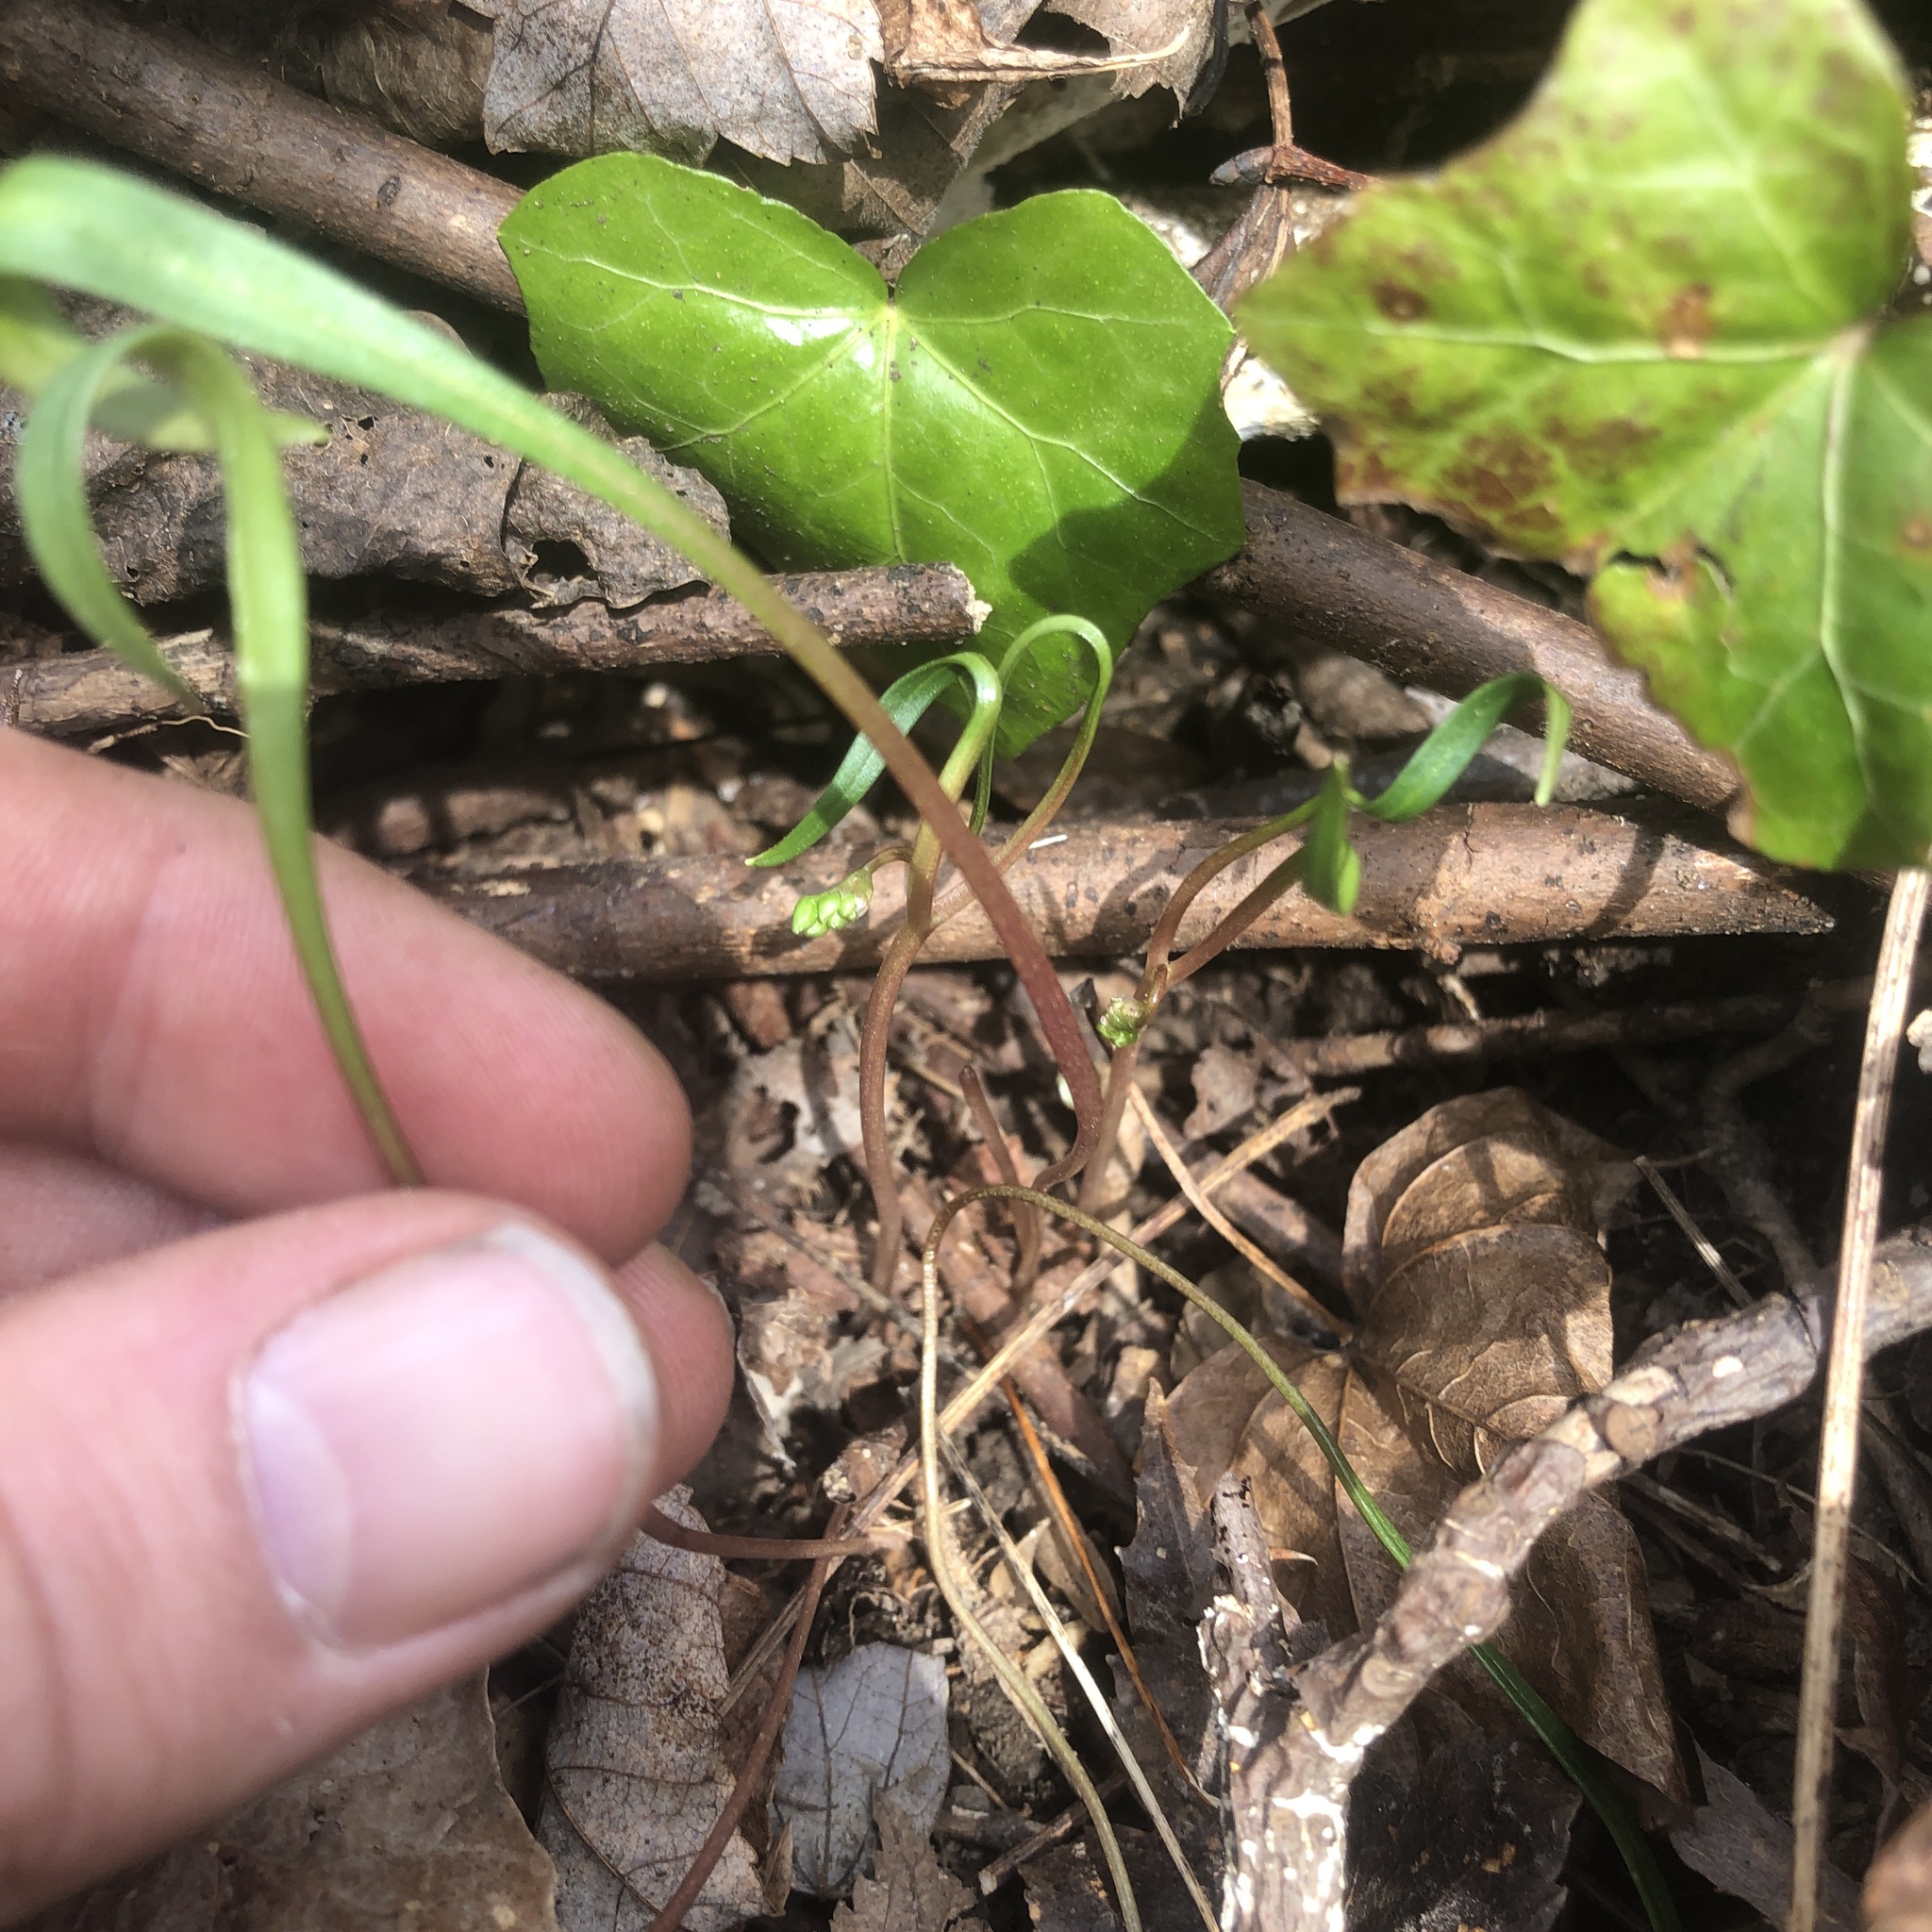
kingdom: Plantae
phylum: Tracheophyta
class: Magnoliopsida
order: Caryophyllales
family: Montiaceae
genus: Claytonia
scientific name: Claytonia virginica
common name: Virginia springbeauty
